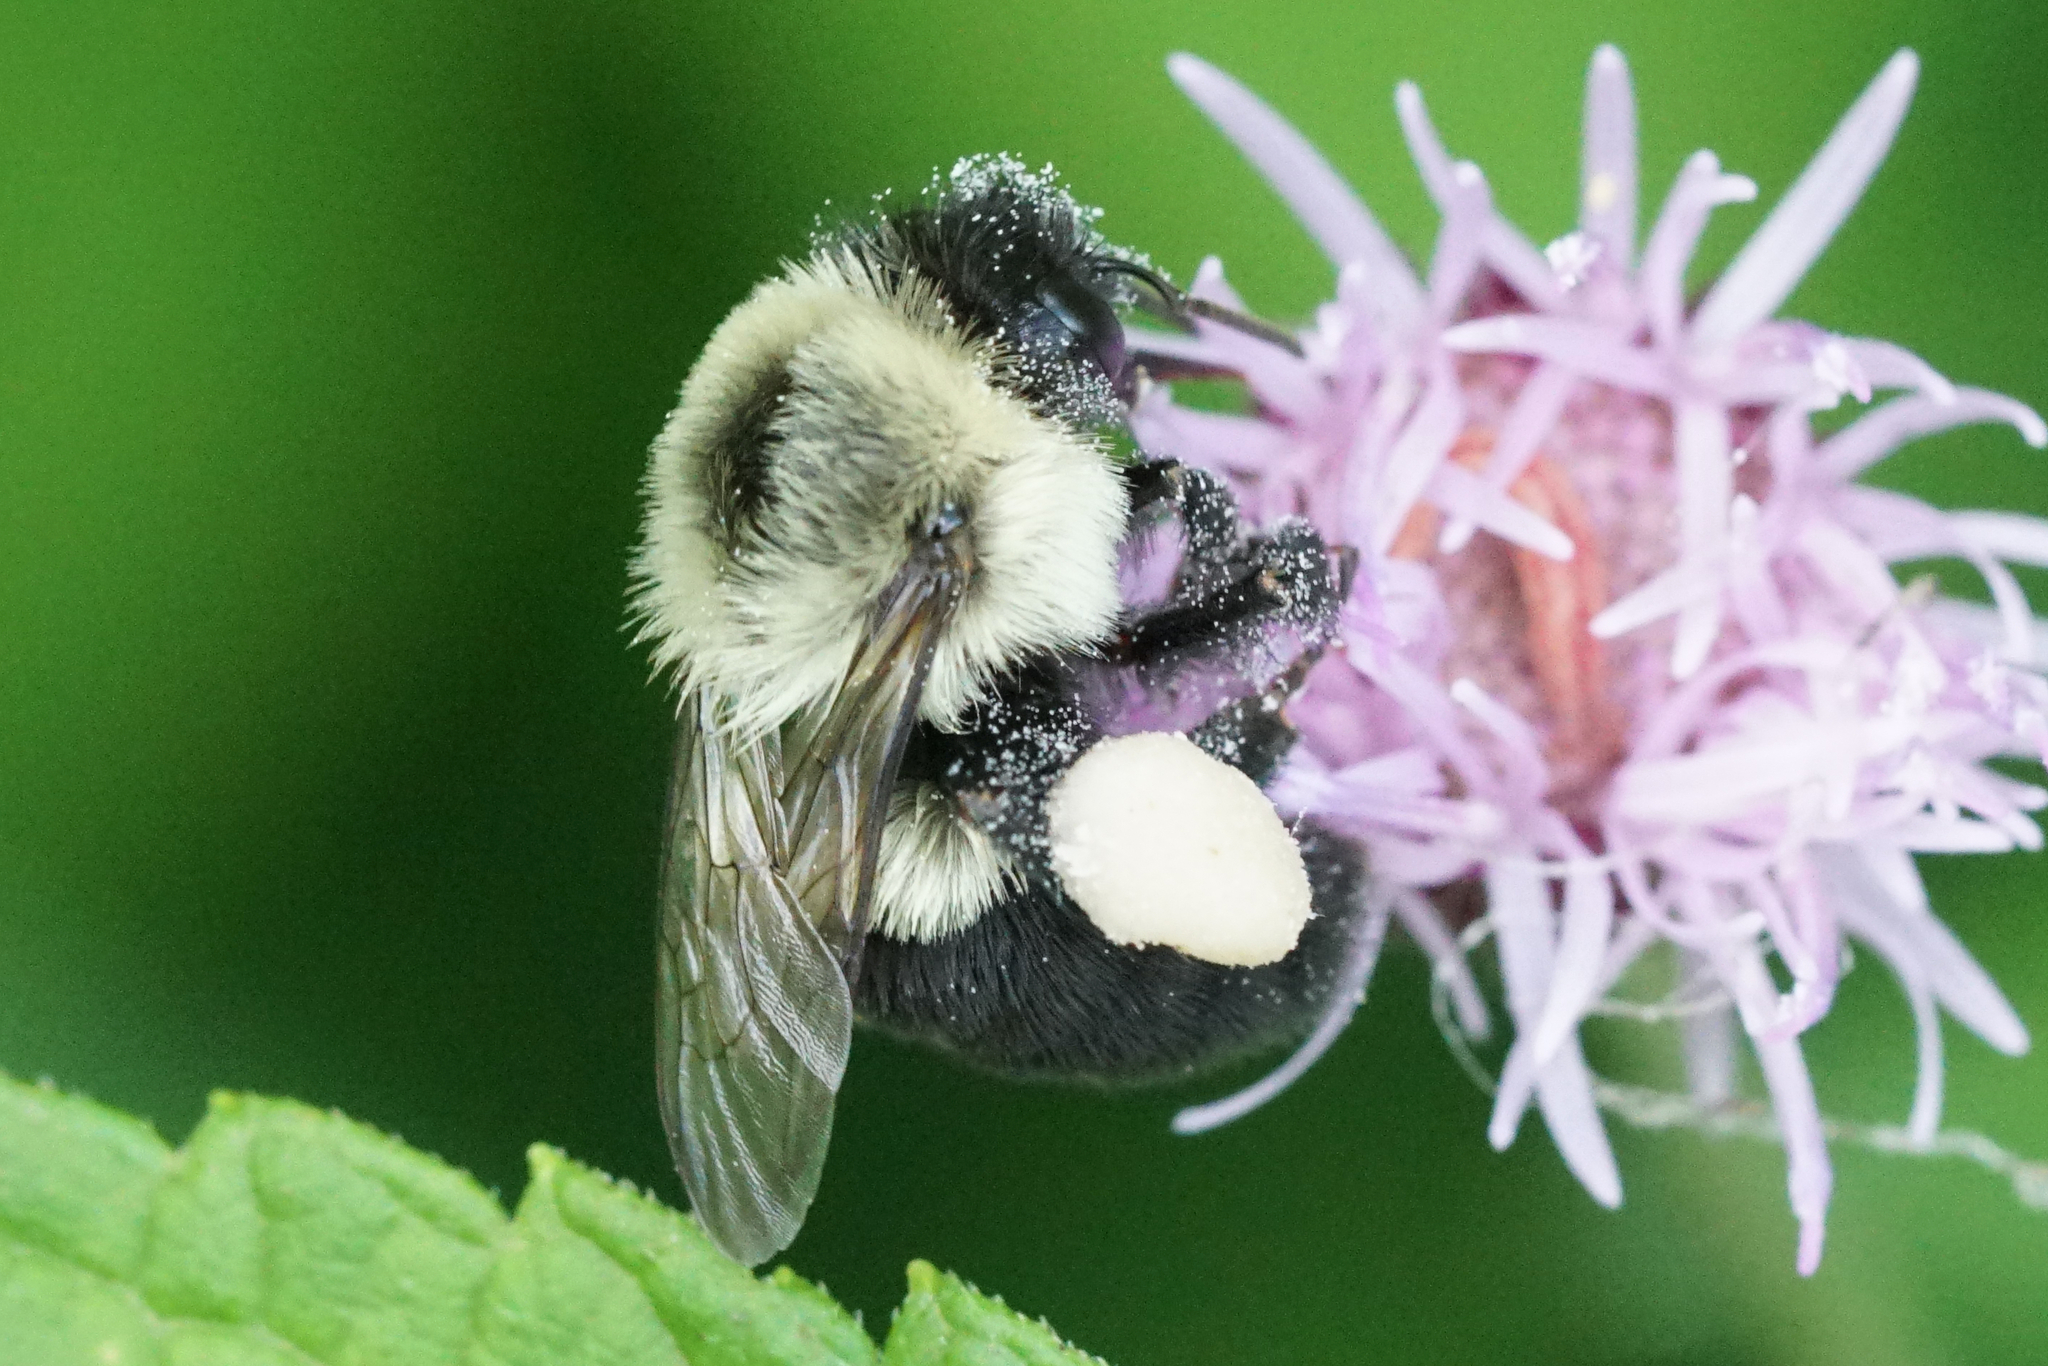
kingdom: Animalia
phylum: Arthropoda
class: Insecta
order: Hymenoptera
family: Apidae
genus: Bombus
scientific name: Bombus impatiens
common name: Common eastern bumble bee
